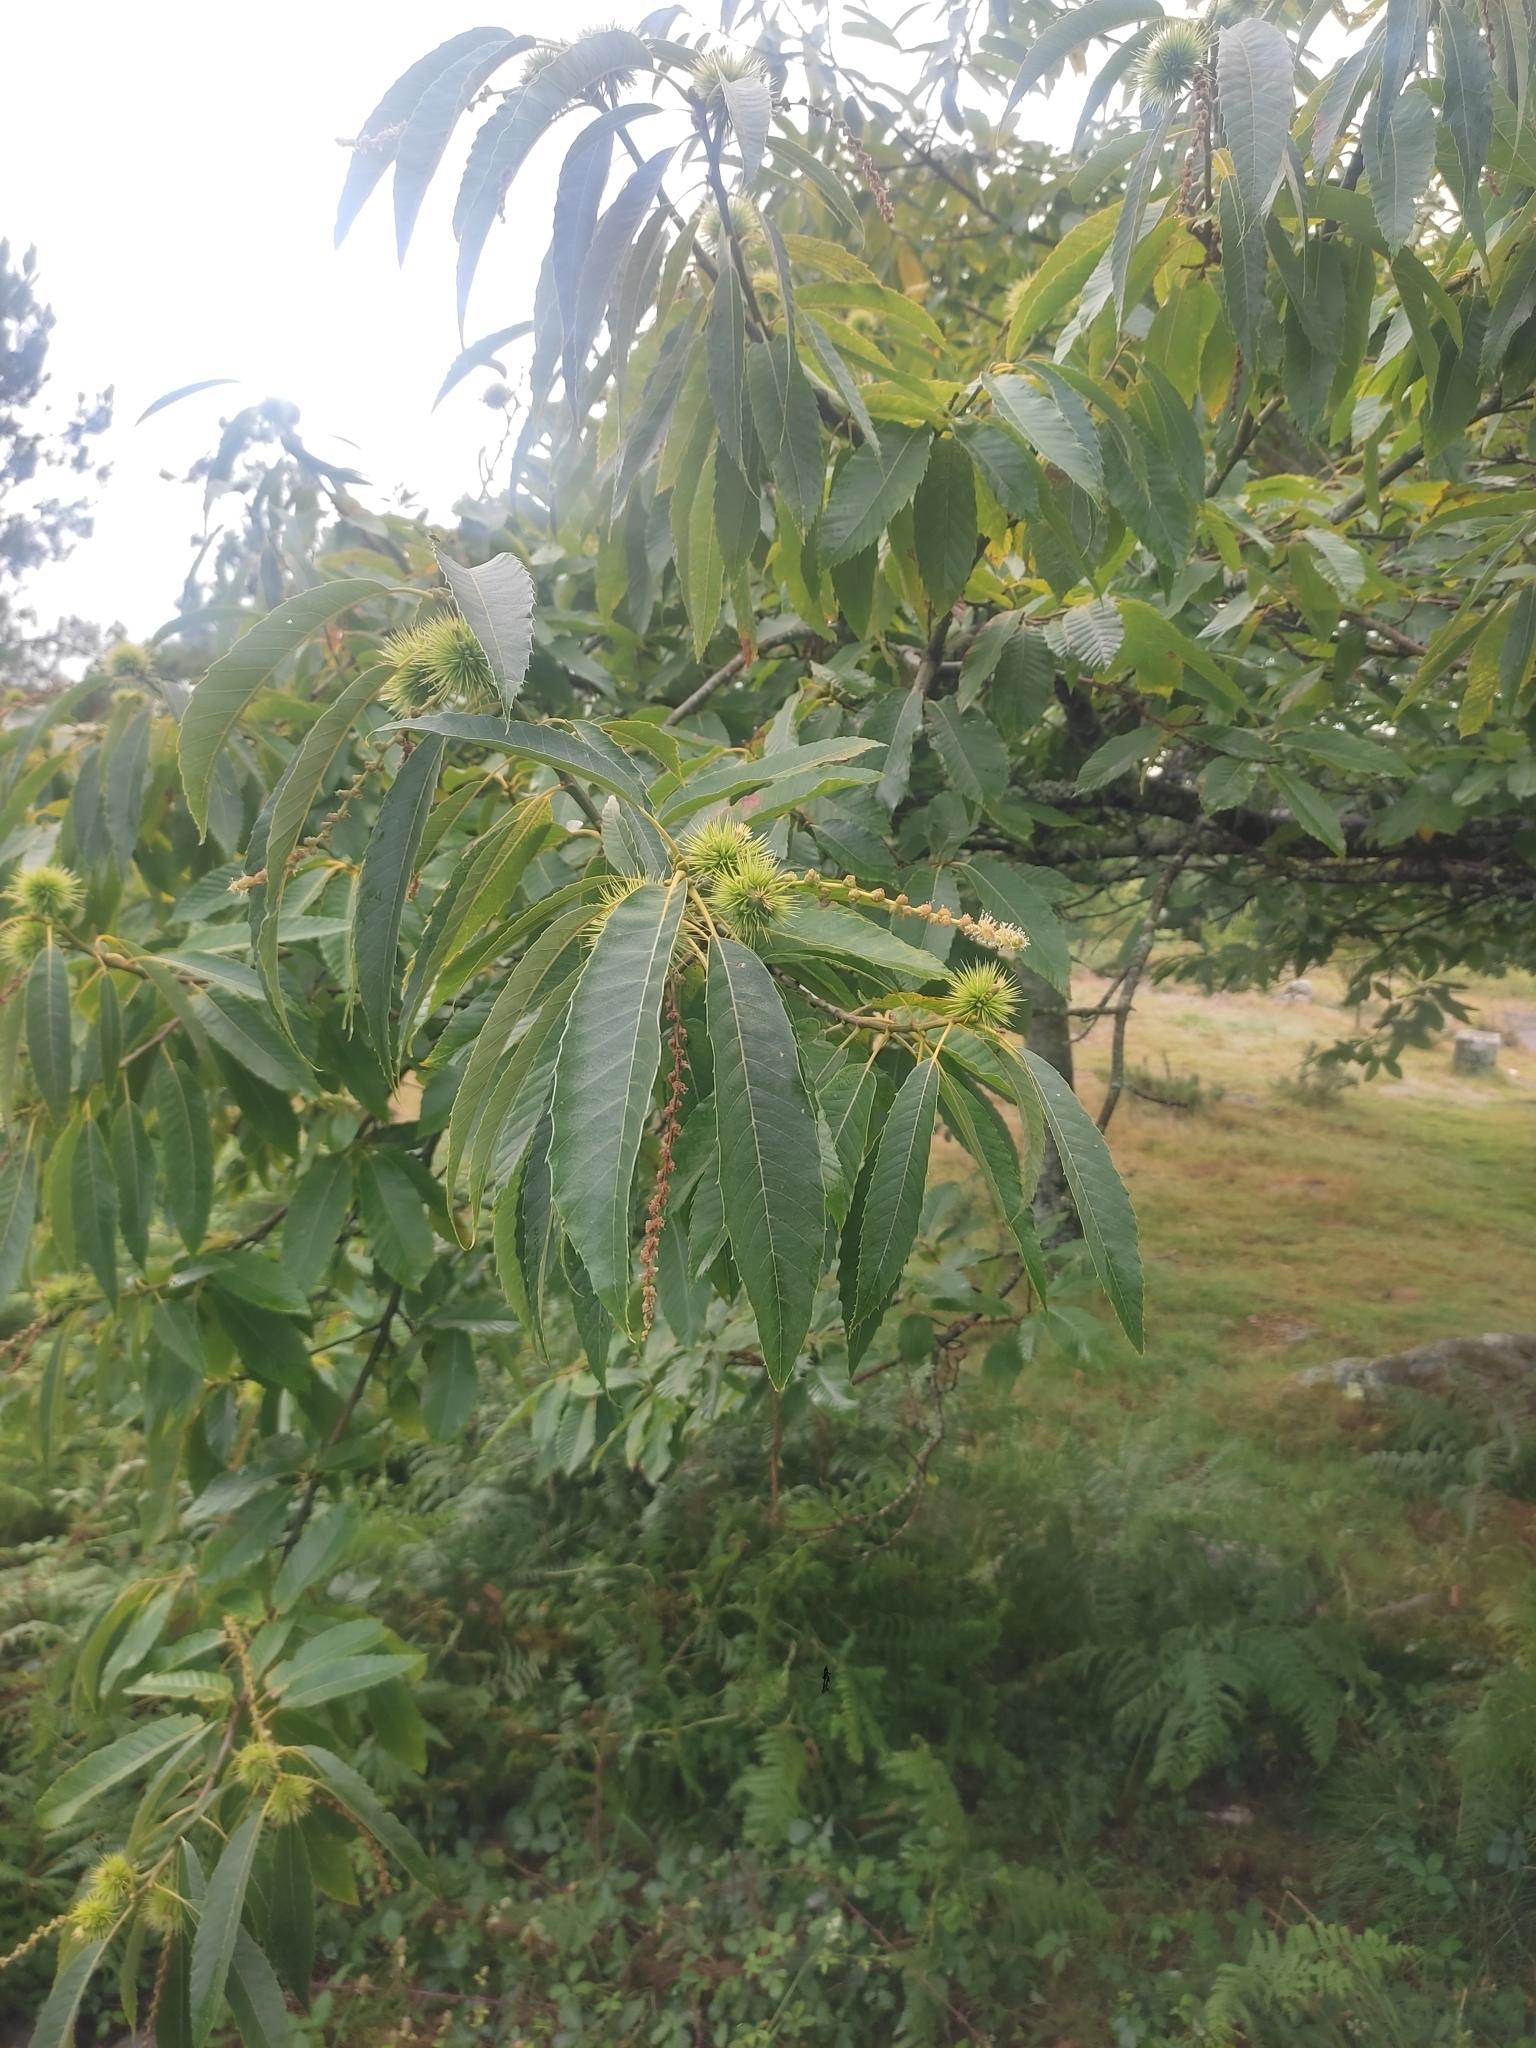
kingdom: Plantae
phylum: Tracheophyta
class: Magnoliopsida
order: Fagales
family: Fagaceae
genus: Castanea
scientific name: Castanea sativa
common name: Sweet chestnut
